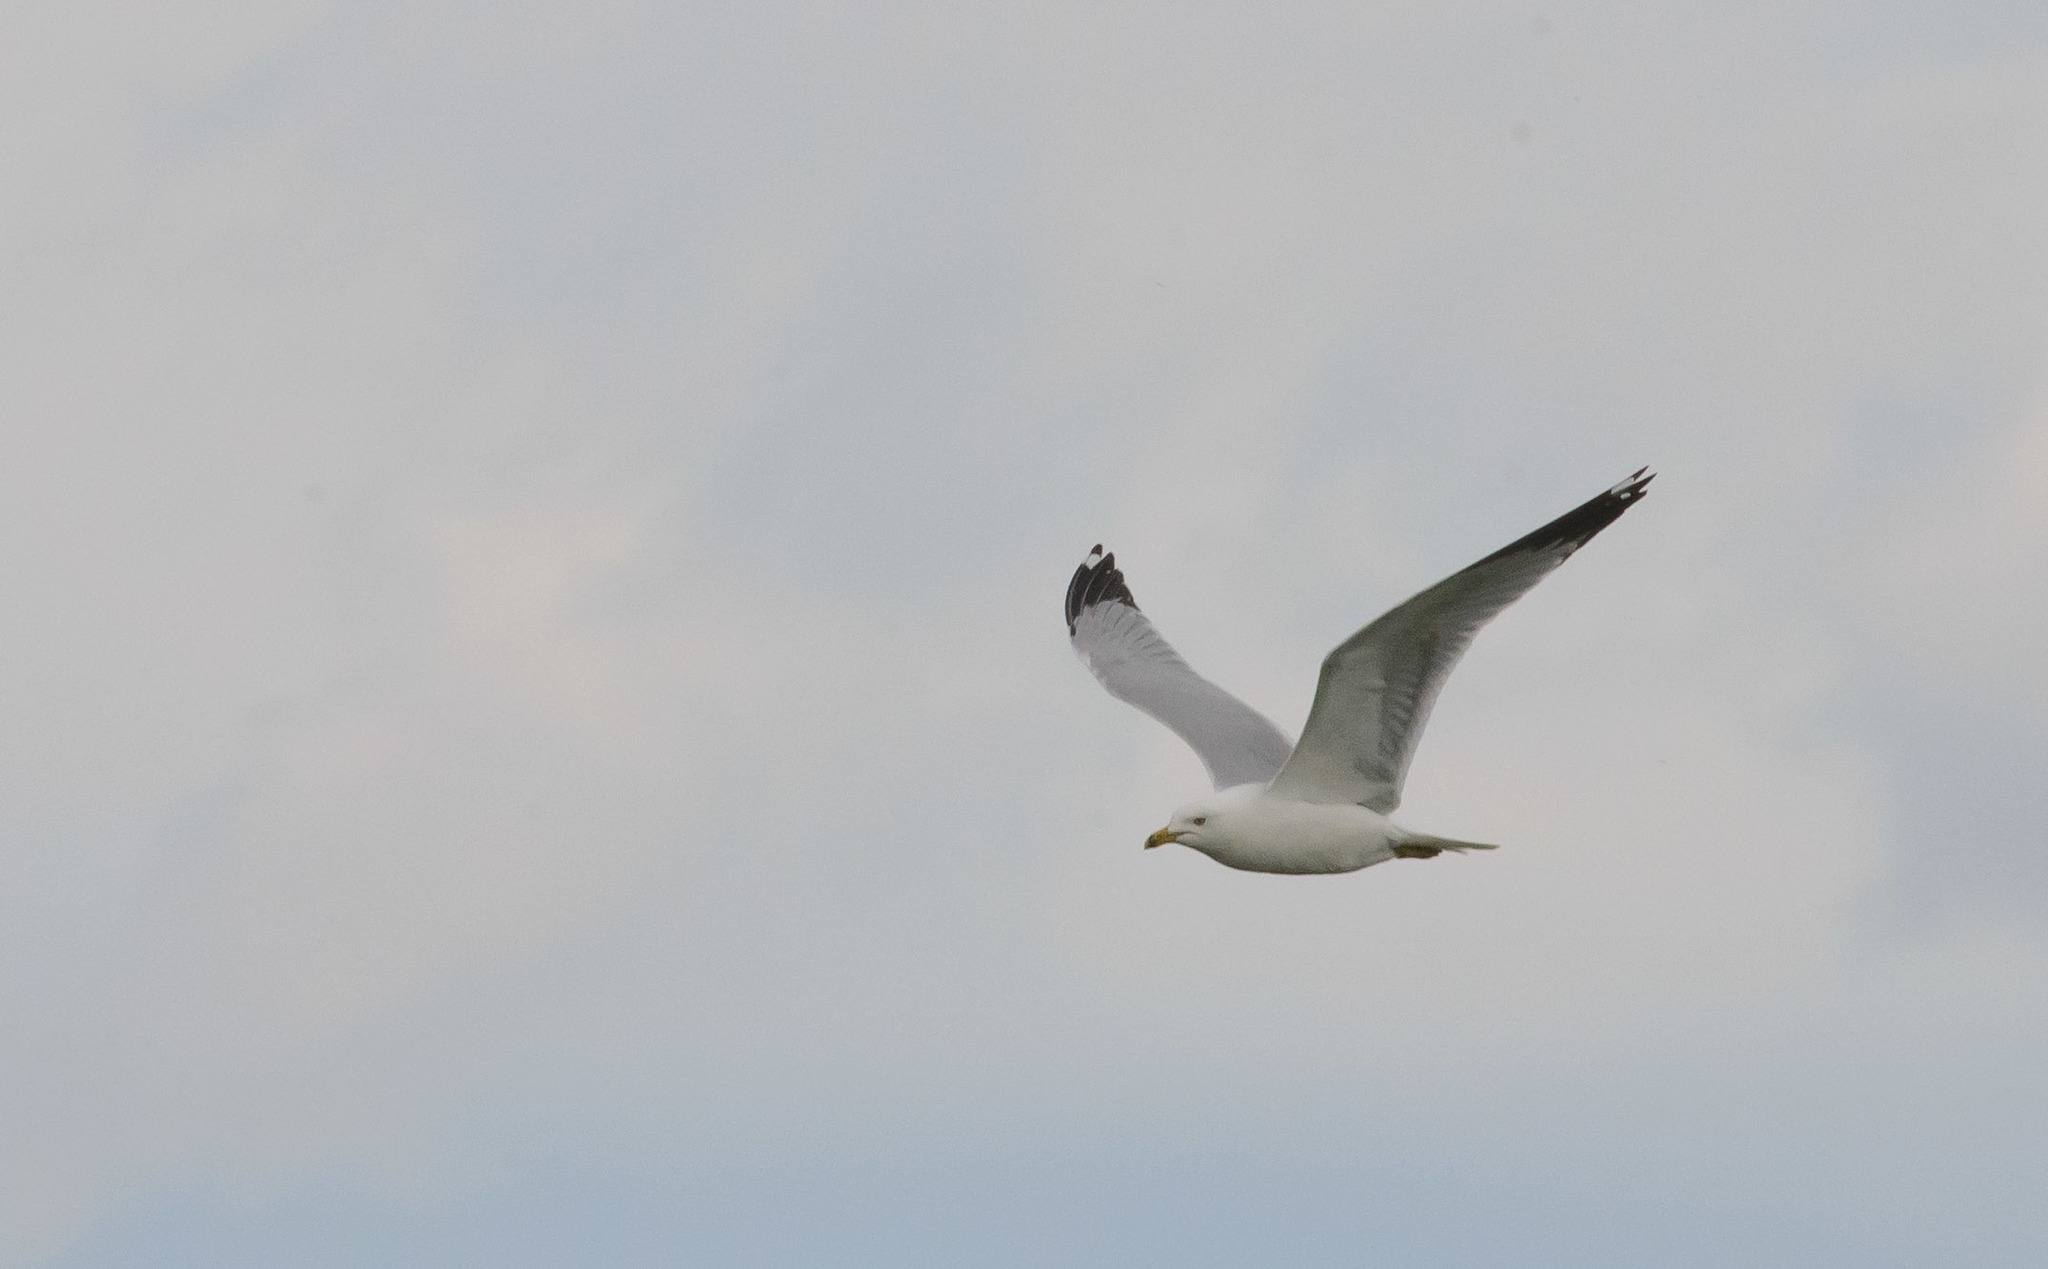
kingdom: Animalia
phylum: Chordata
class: Aves
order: Charadriiformes
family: Laridae
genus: Larus
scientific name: Larus delawarensis
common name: Ring-billed gull
